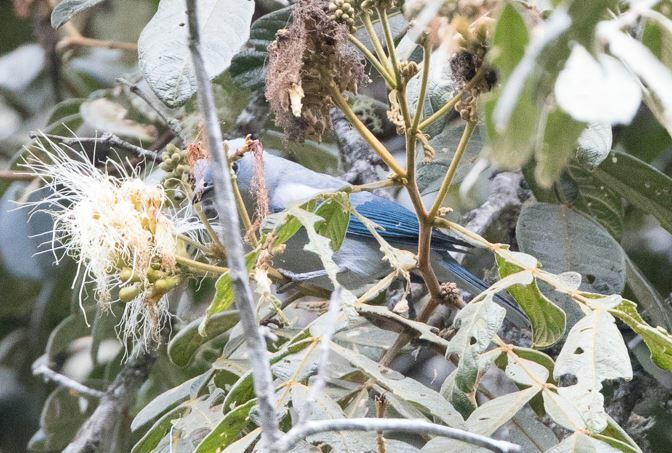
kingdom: Animalia
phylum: Chordata
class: Aves
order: Passeriformes
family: Thraupidae
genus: Thraupis
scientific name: Thraupis episcopus
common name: Blue-grey tanager
